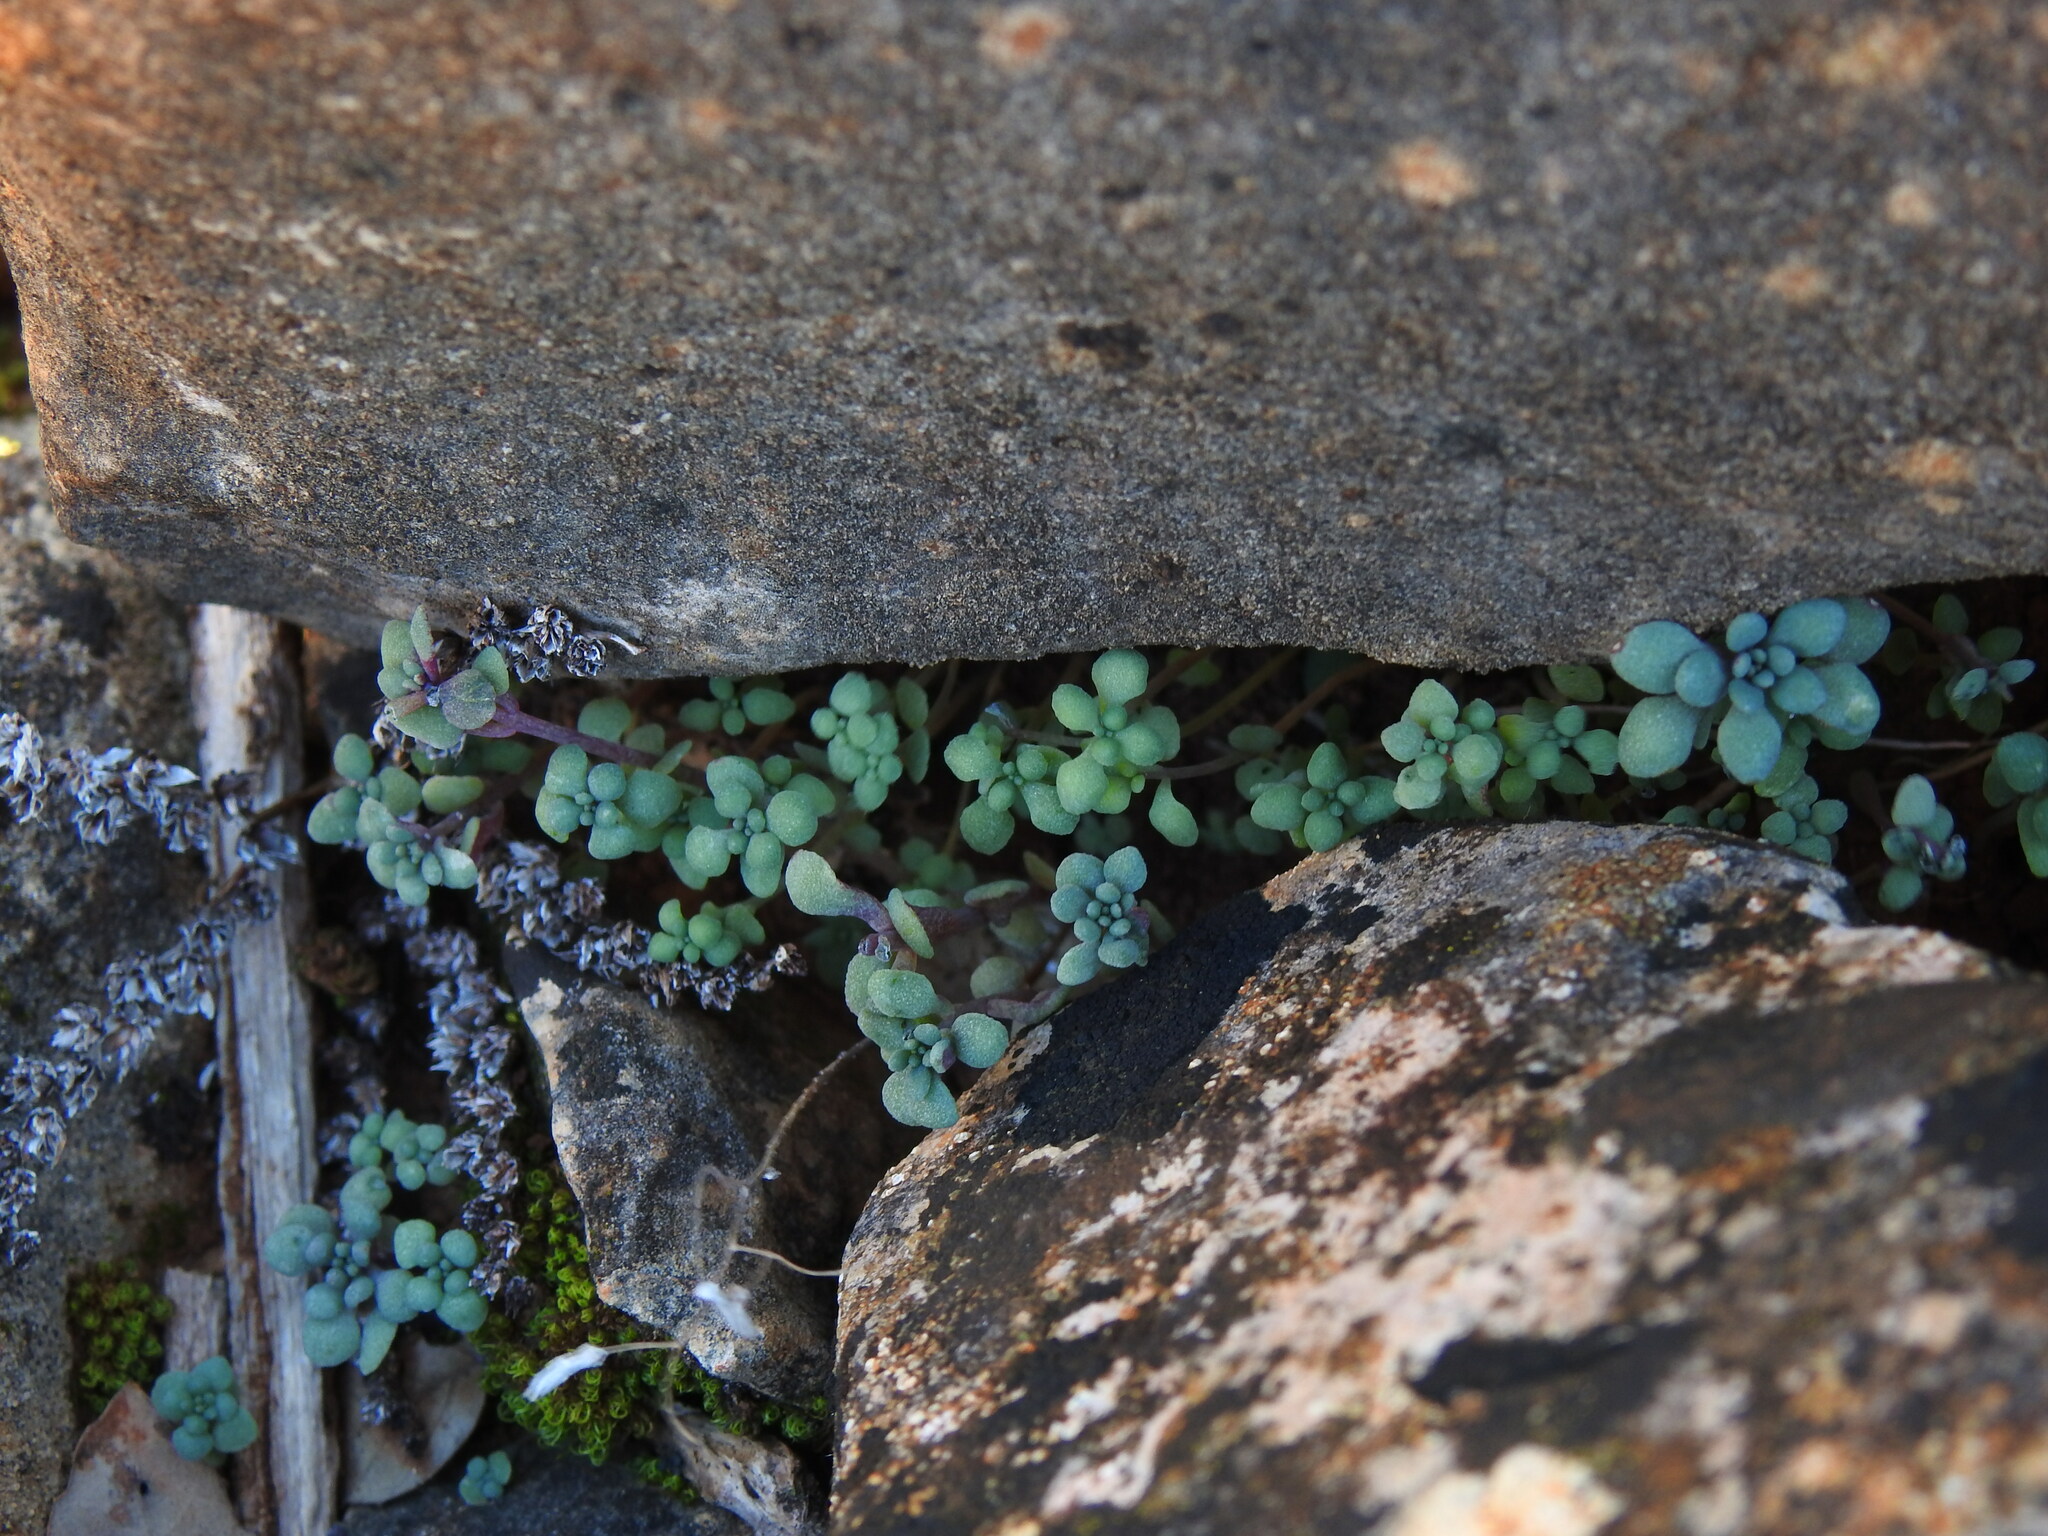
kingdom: Plantae
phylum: Tracheophyta
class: Magnoliopsida
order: Saxifragales
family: Crassulaceae
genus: Sedum
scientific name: Sedum mucizonia
